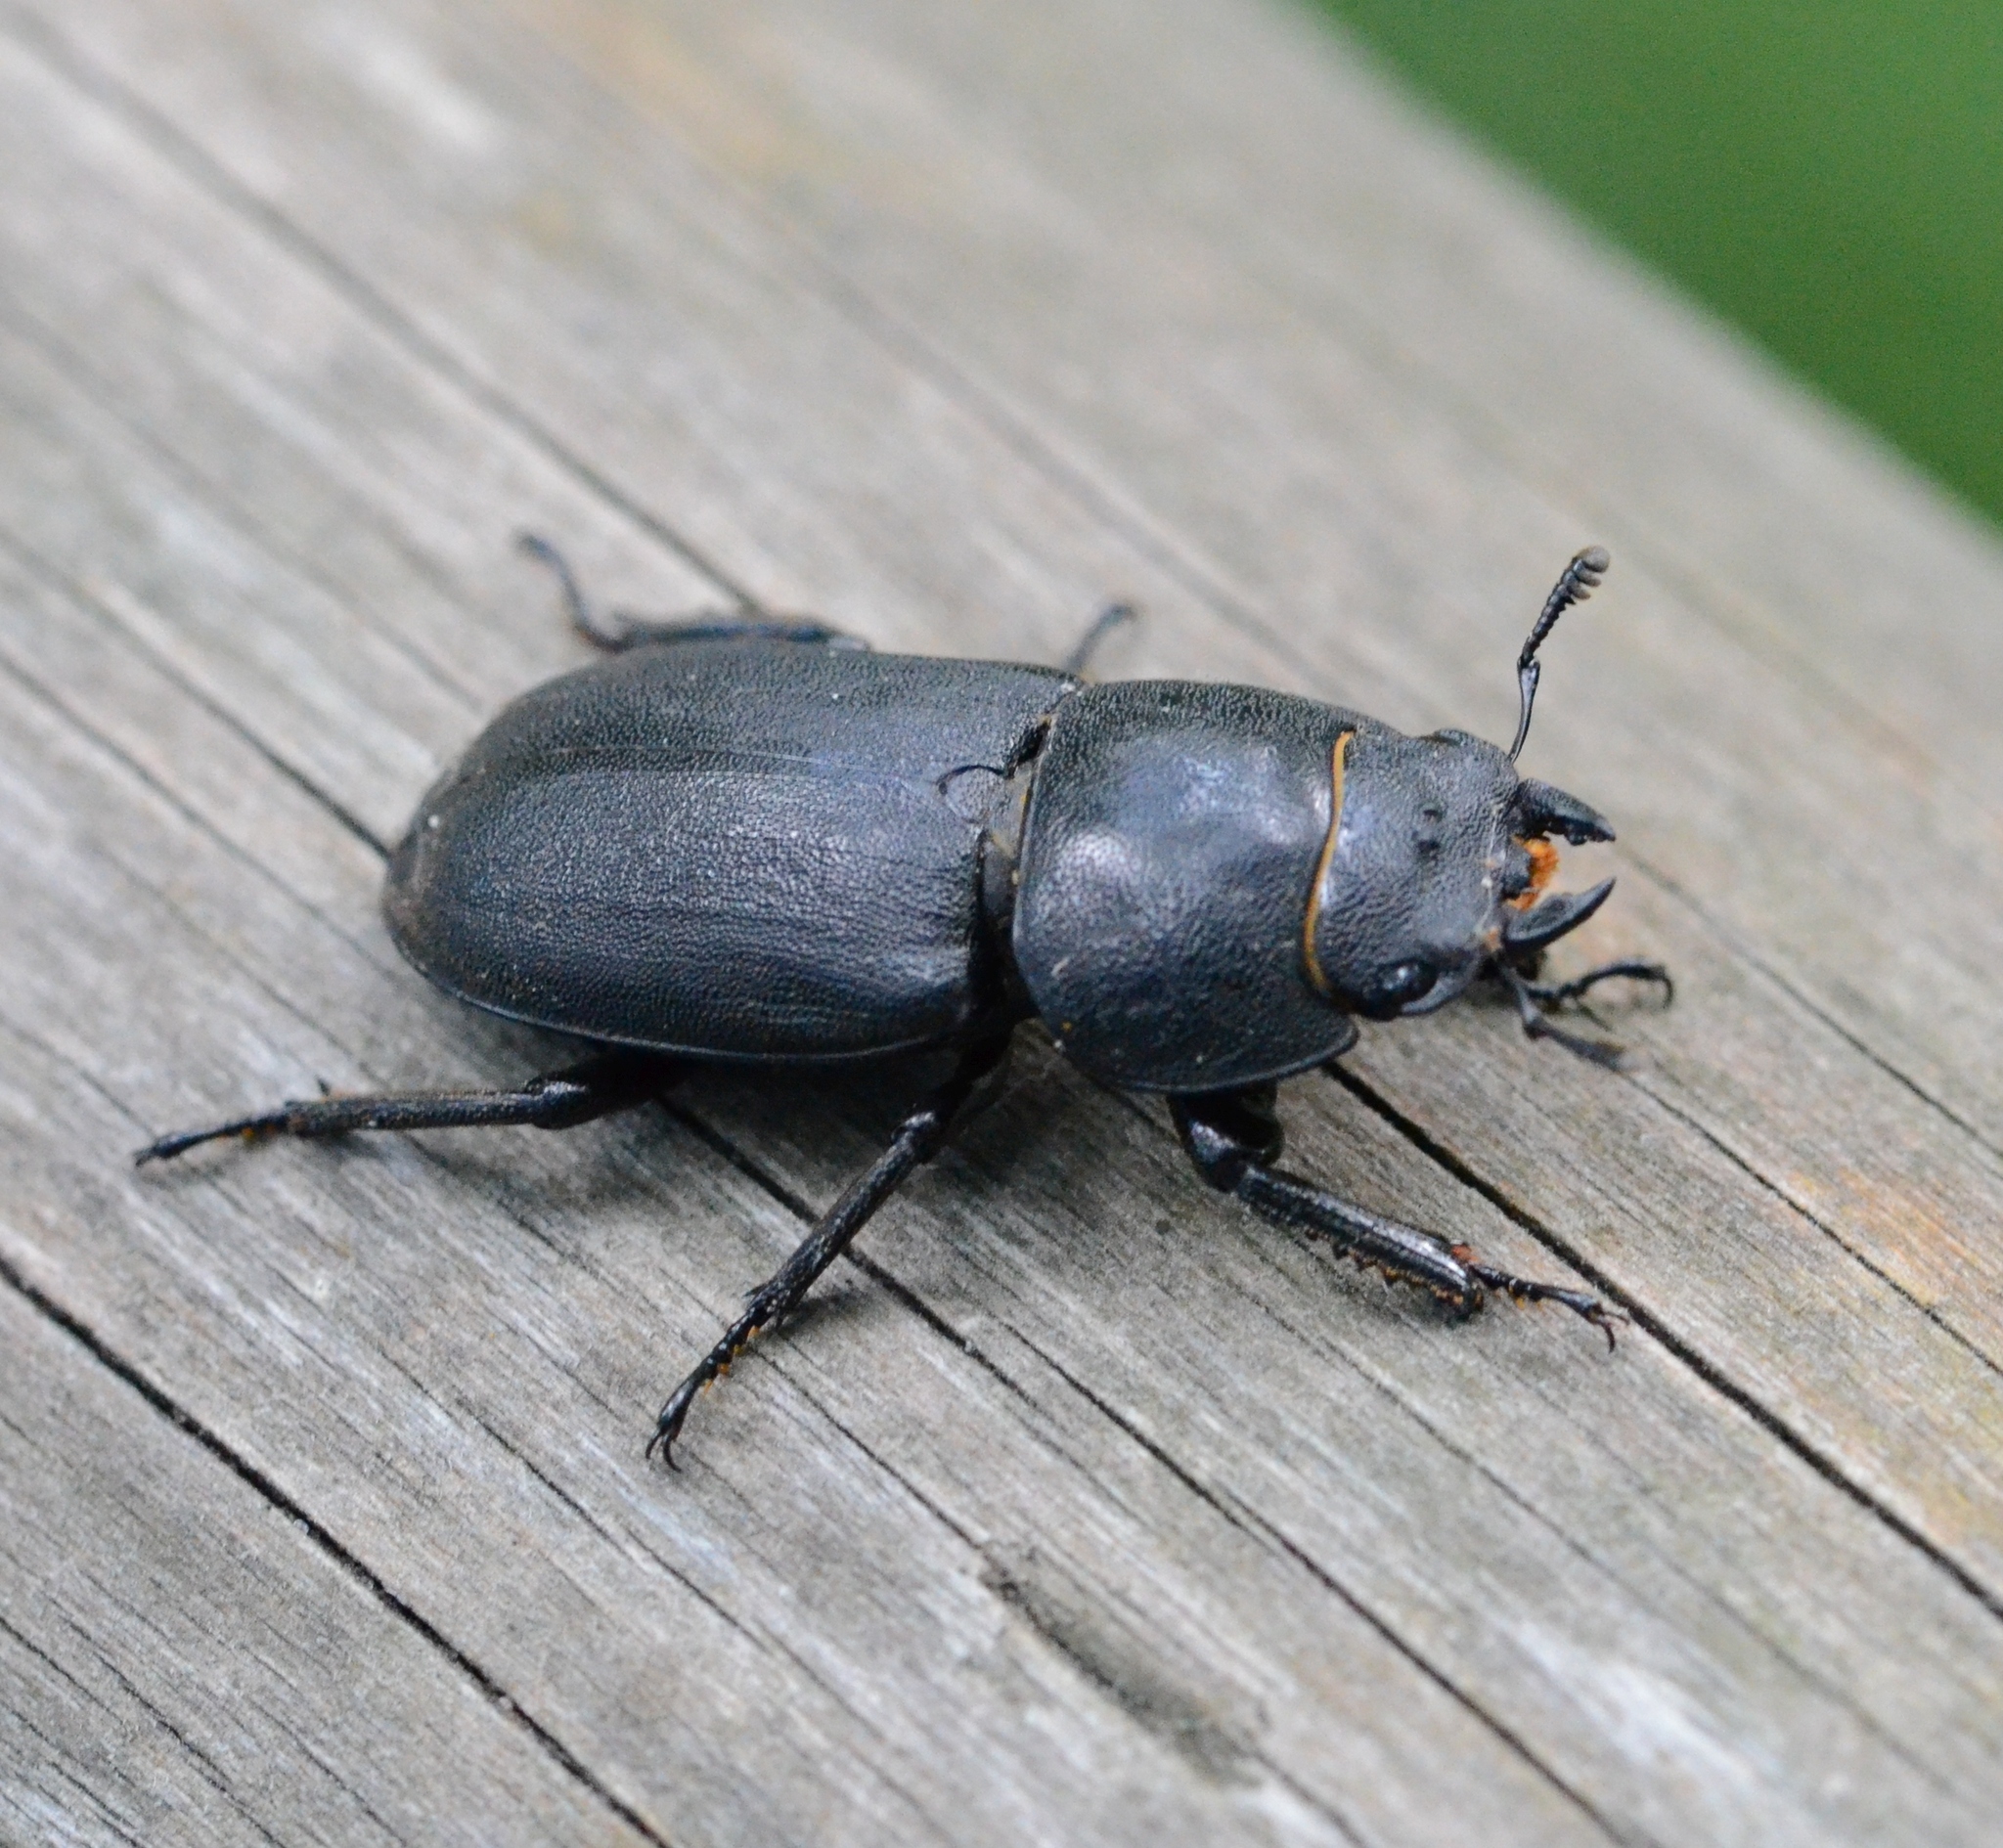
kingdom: Animalia
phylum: Arthropoda
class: Insecta
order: Coleoptera
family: Lucanidae
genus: Dorcus
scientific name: Dorcus parallelipipedus
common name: Lesser stag beetle
